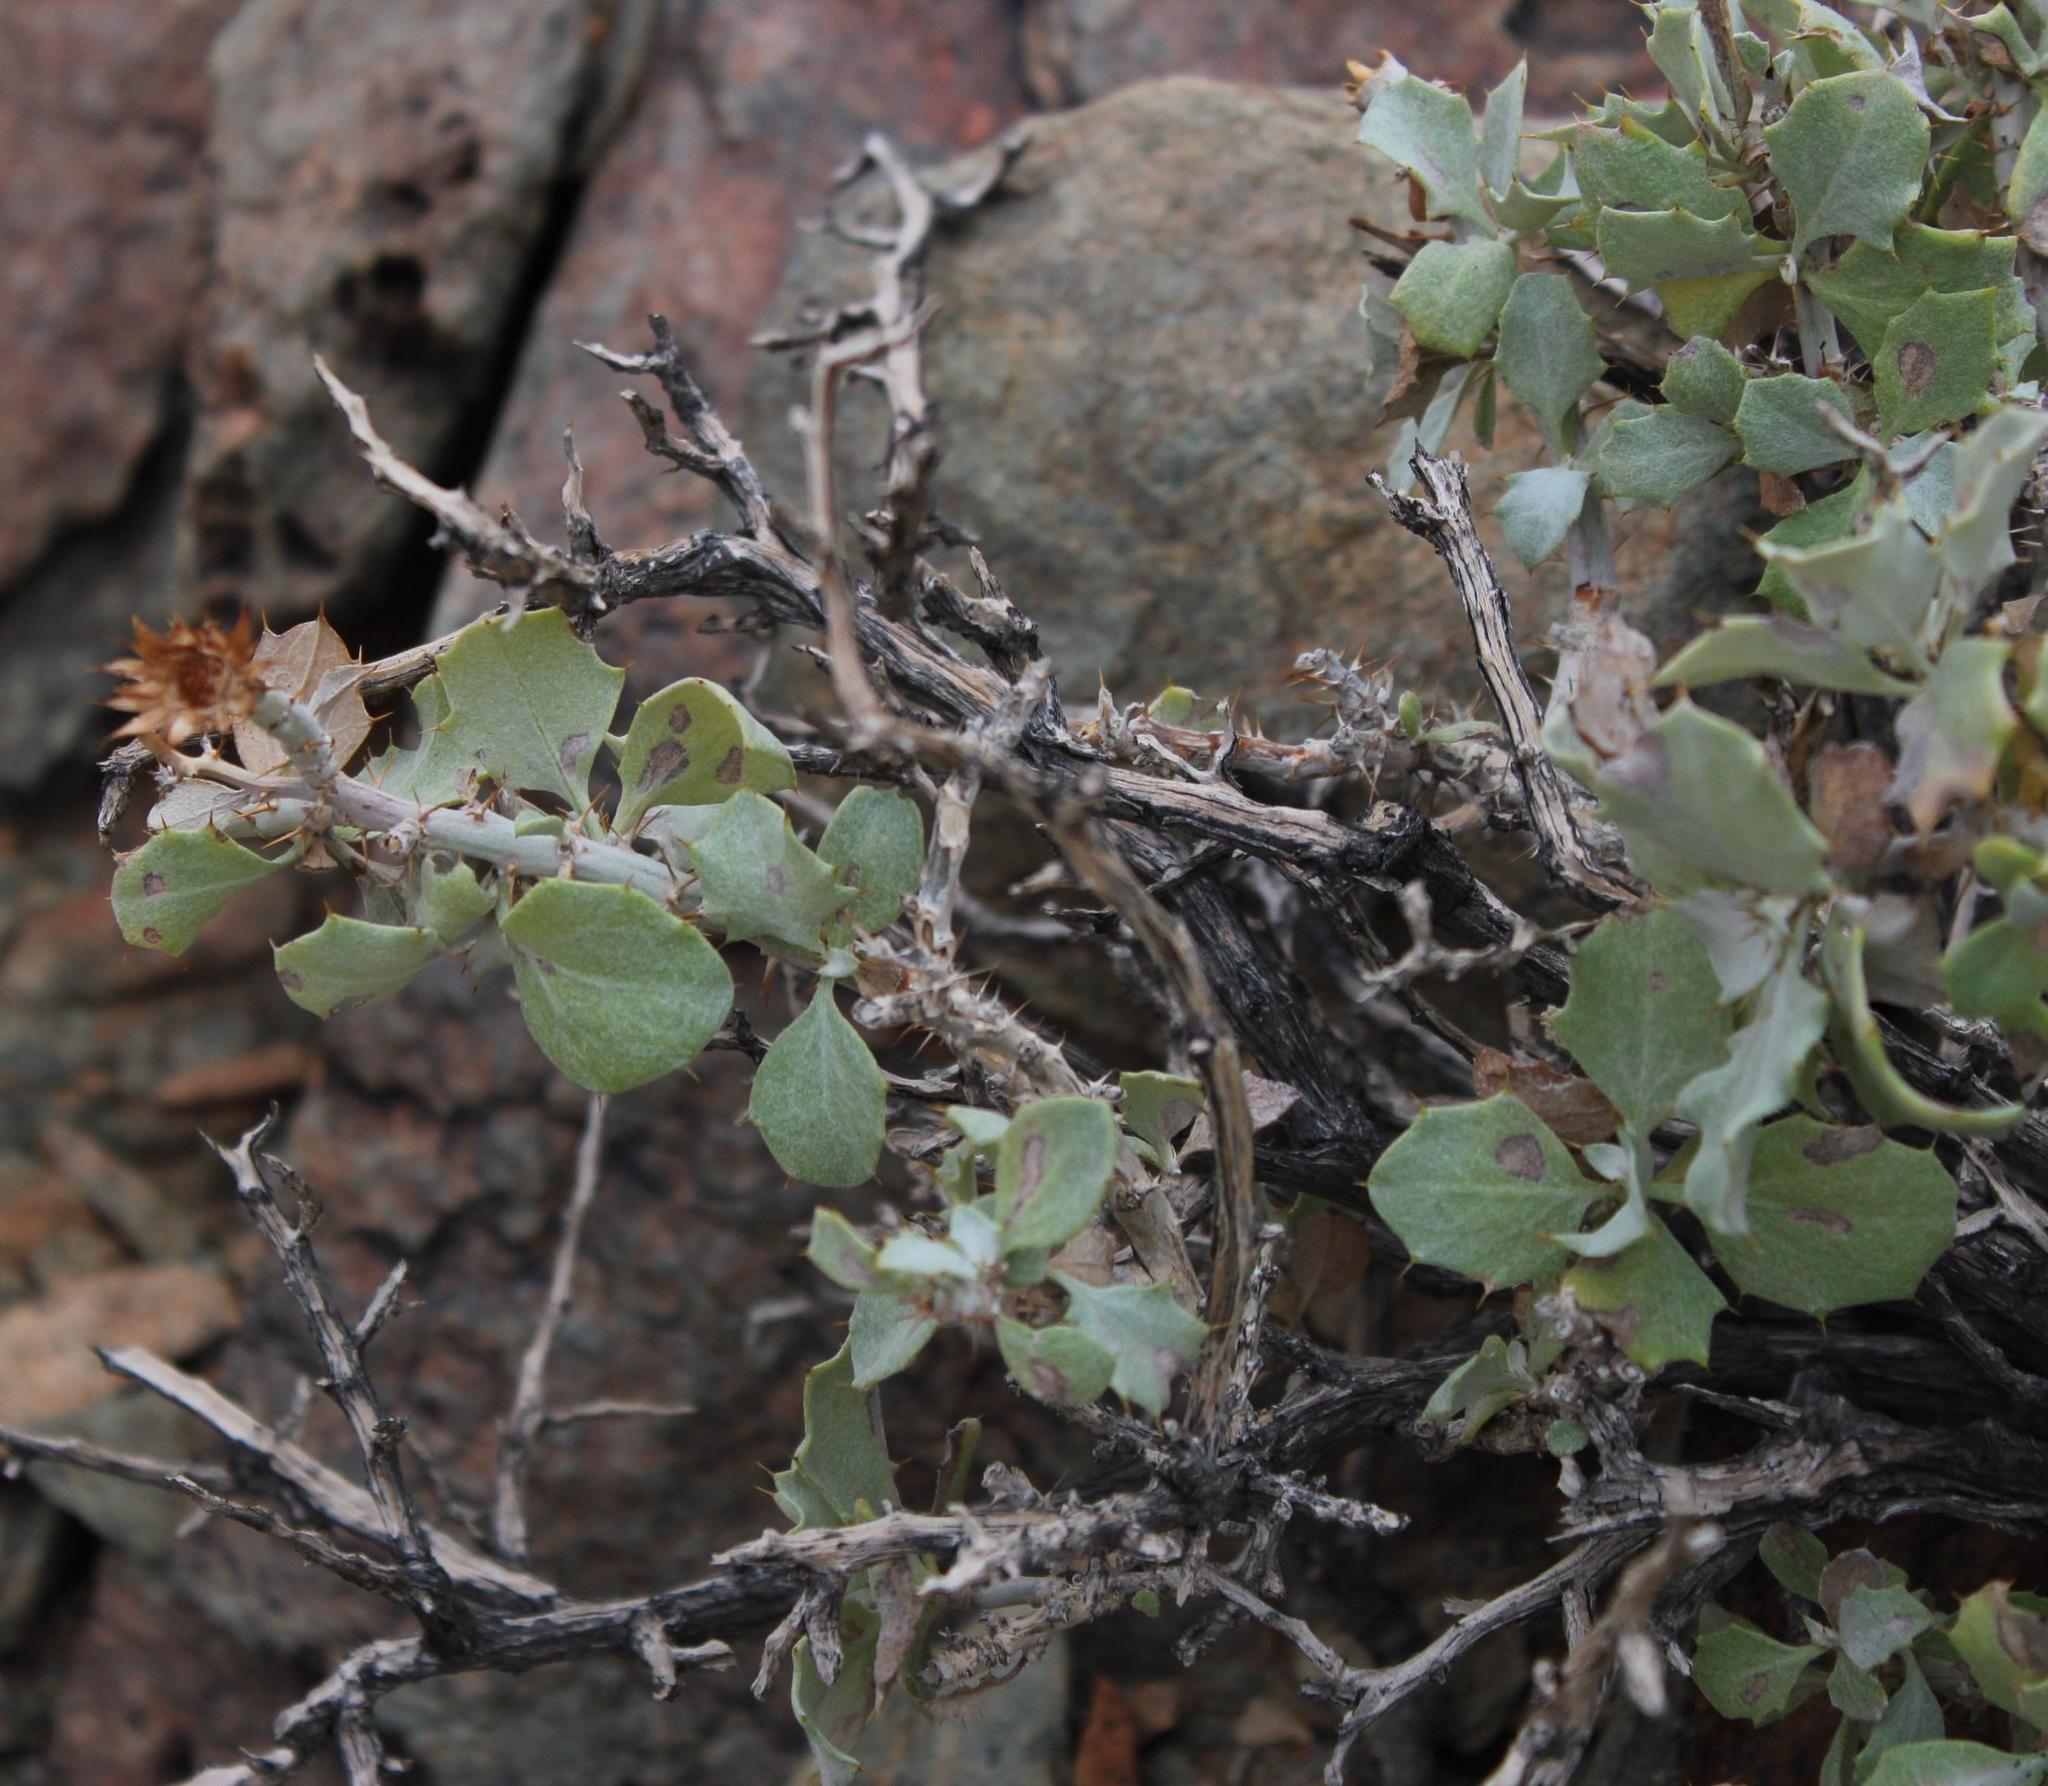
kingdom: Plantae
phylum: Tracheophyta
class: Magnoliopsida
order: Asterales
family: Asteraceae
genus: Berkheya
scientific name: Berkheya canescens
